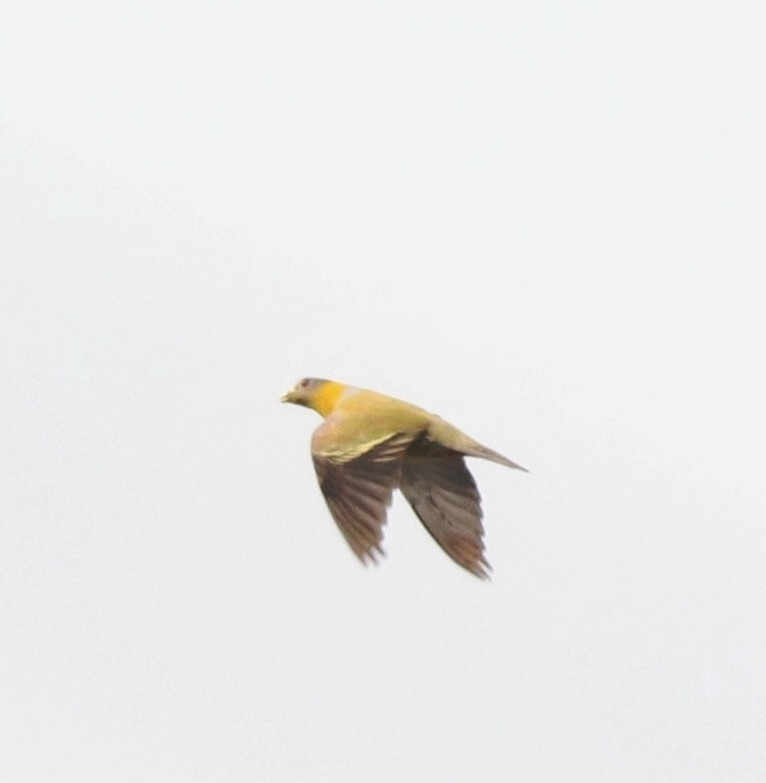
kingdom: Animalia
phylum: Chordata
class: Aves
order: Columbiformes
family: Columbidae
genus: Treron
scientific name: Treron phoenicopterus
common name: Yellow-footed green pigeon
